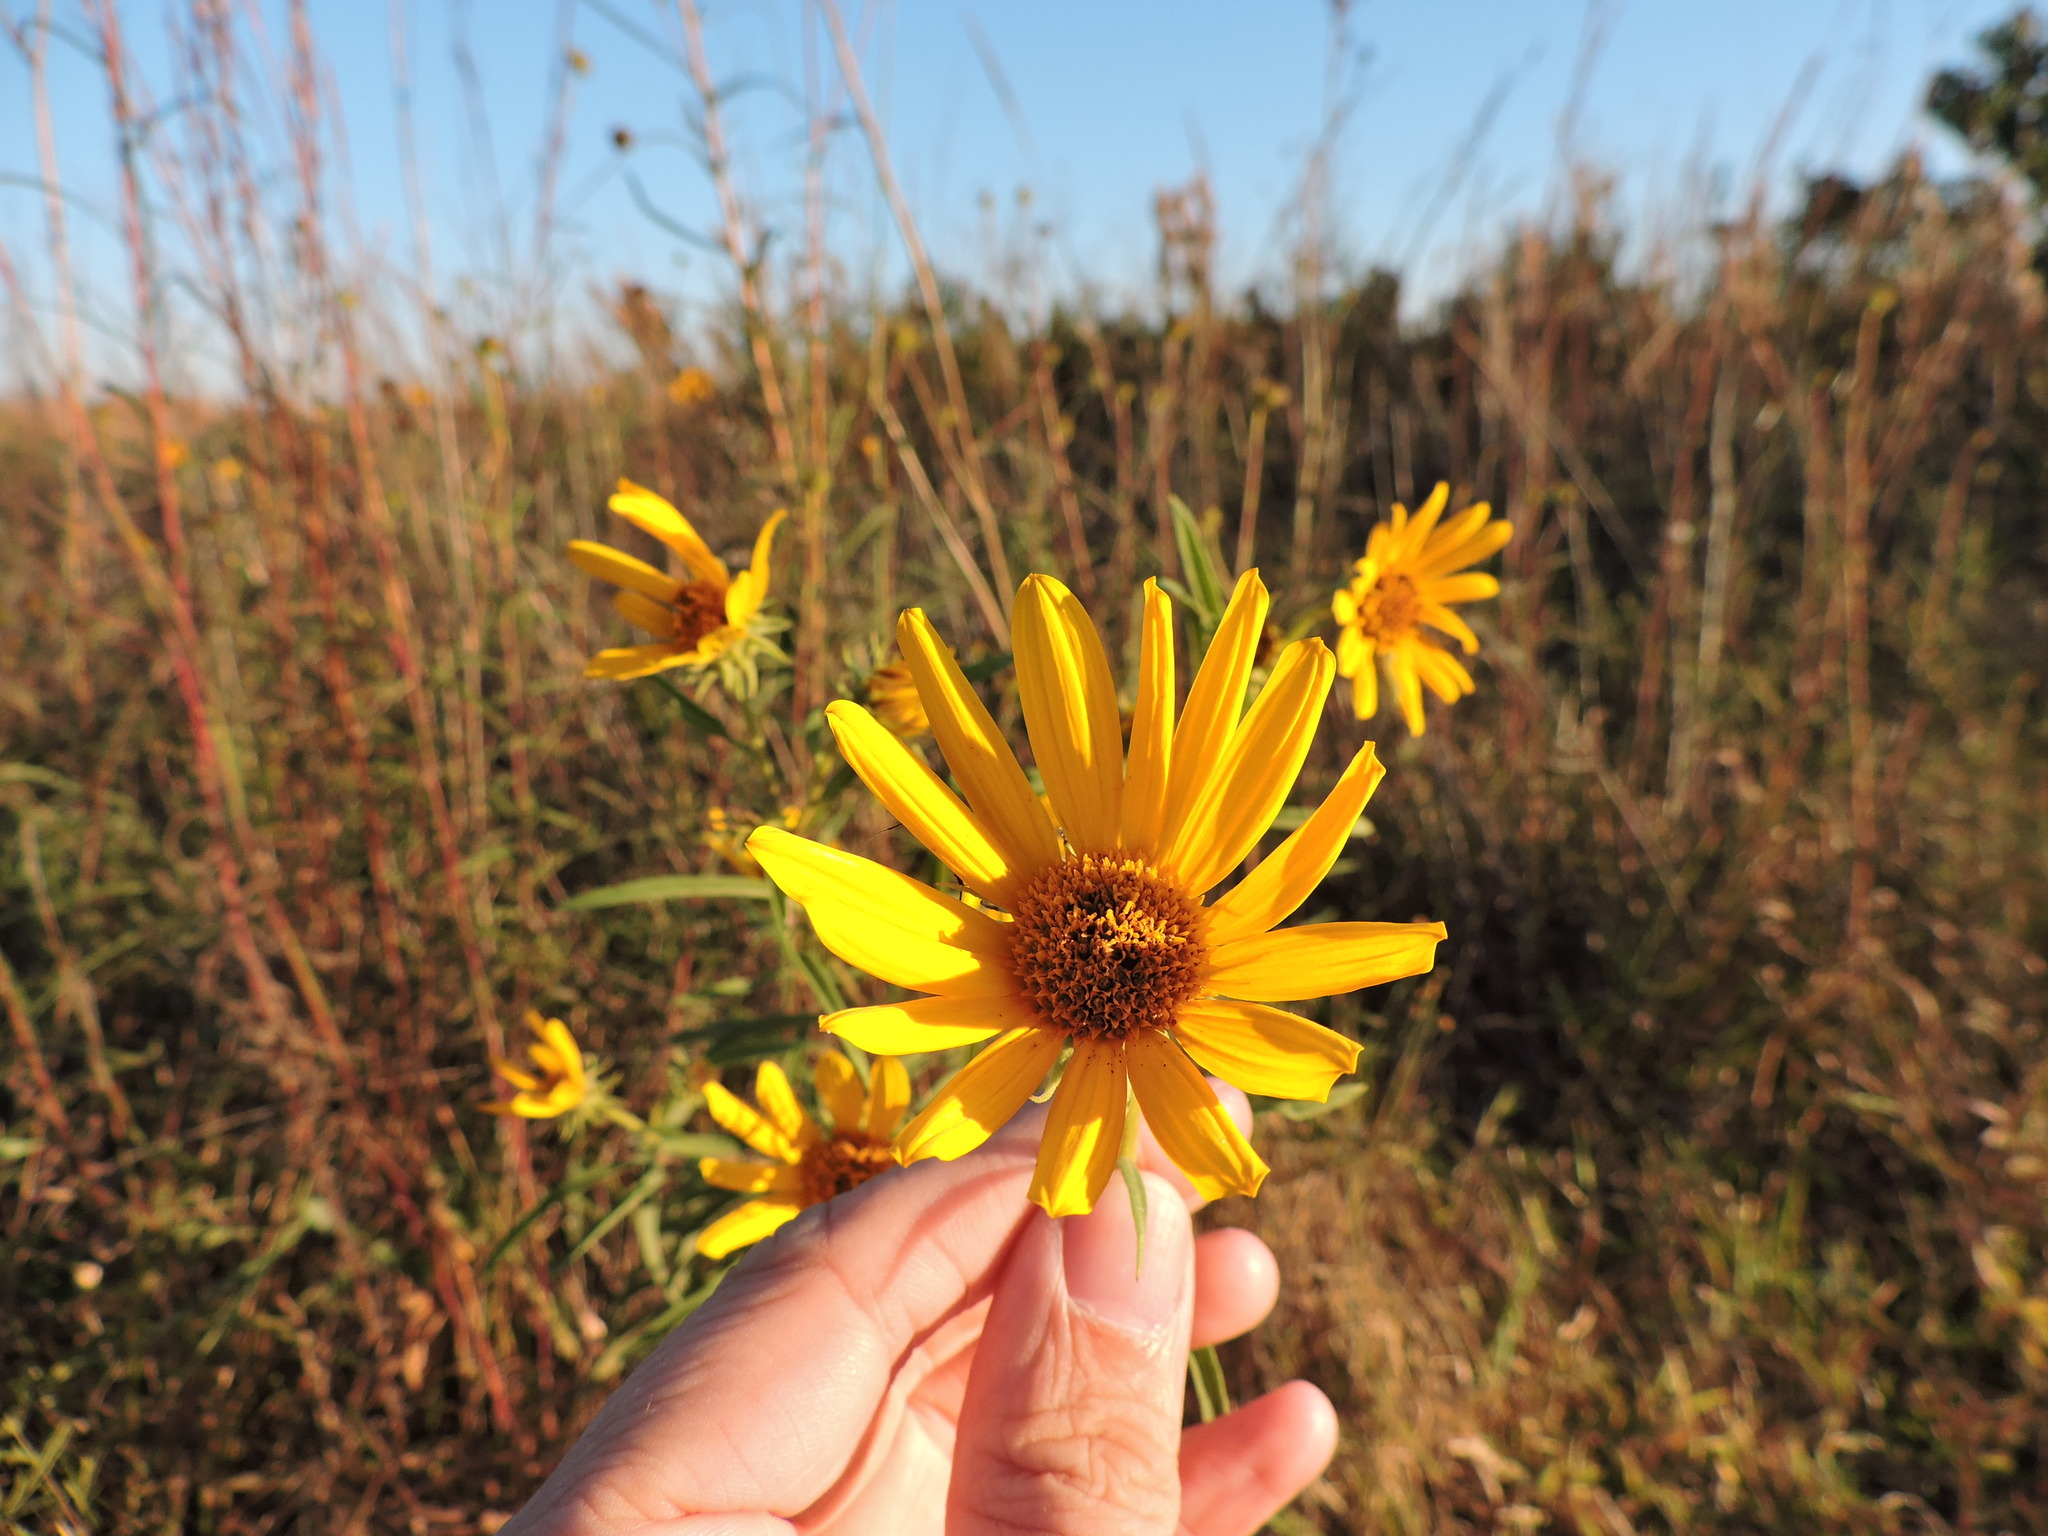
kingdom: Plantae
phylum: Tracheophyta
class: Magnoliopsida
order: Asterales
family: Asteraceae
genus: Helianthus
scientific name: Helianthus maximiliani
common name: Maximilian's sunflower
